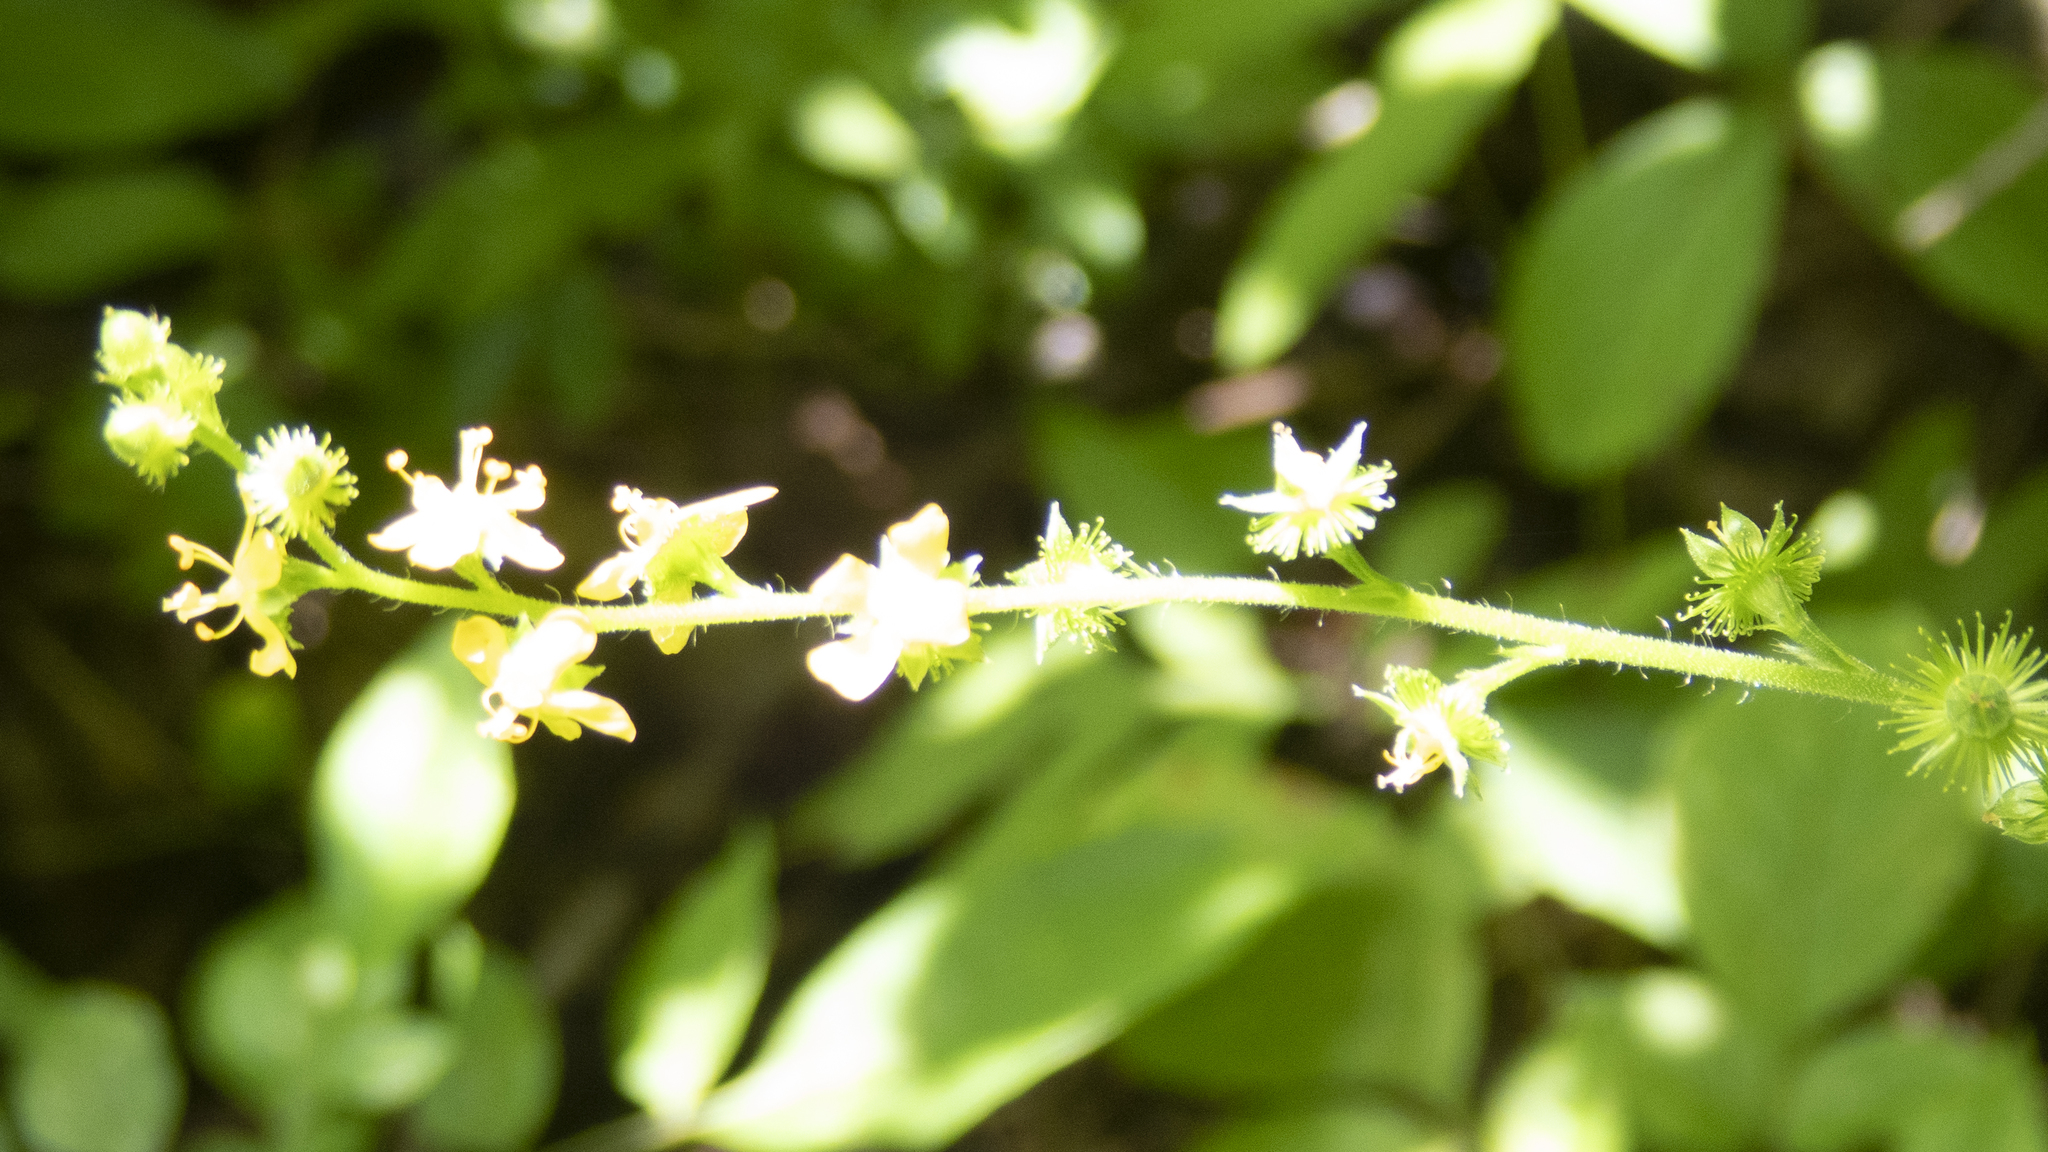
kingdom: Plantae
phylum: Tracheophyta
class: Magnoliopsida
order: Rosales
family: Rosaceae
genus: Agrimonia
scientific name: Agrimonia gryposepala
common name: Common agrimony
